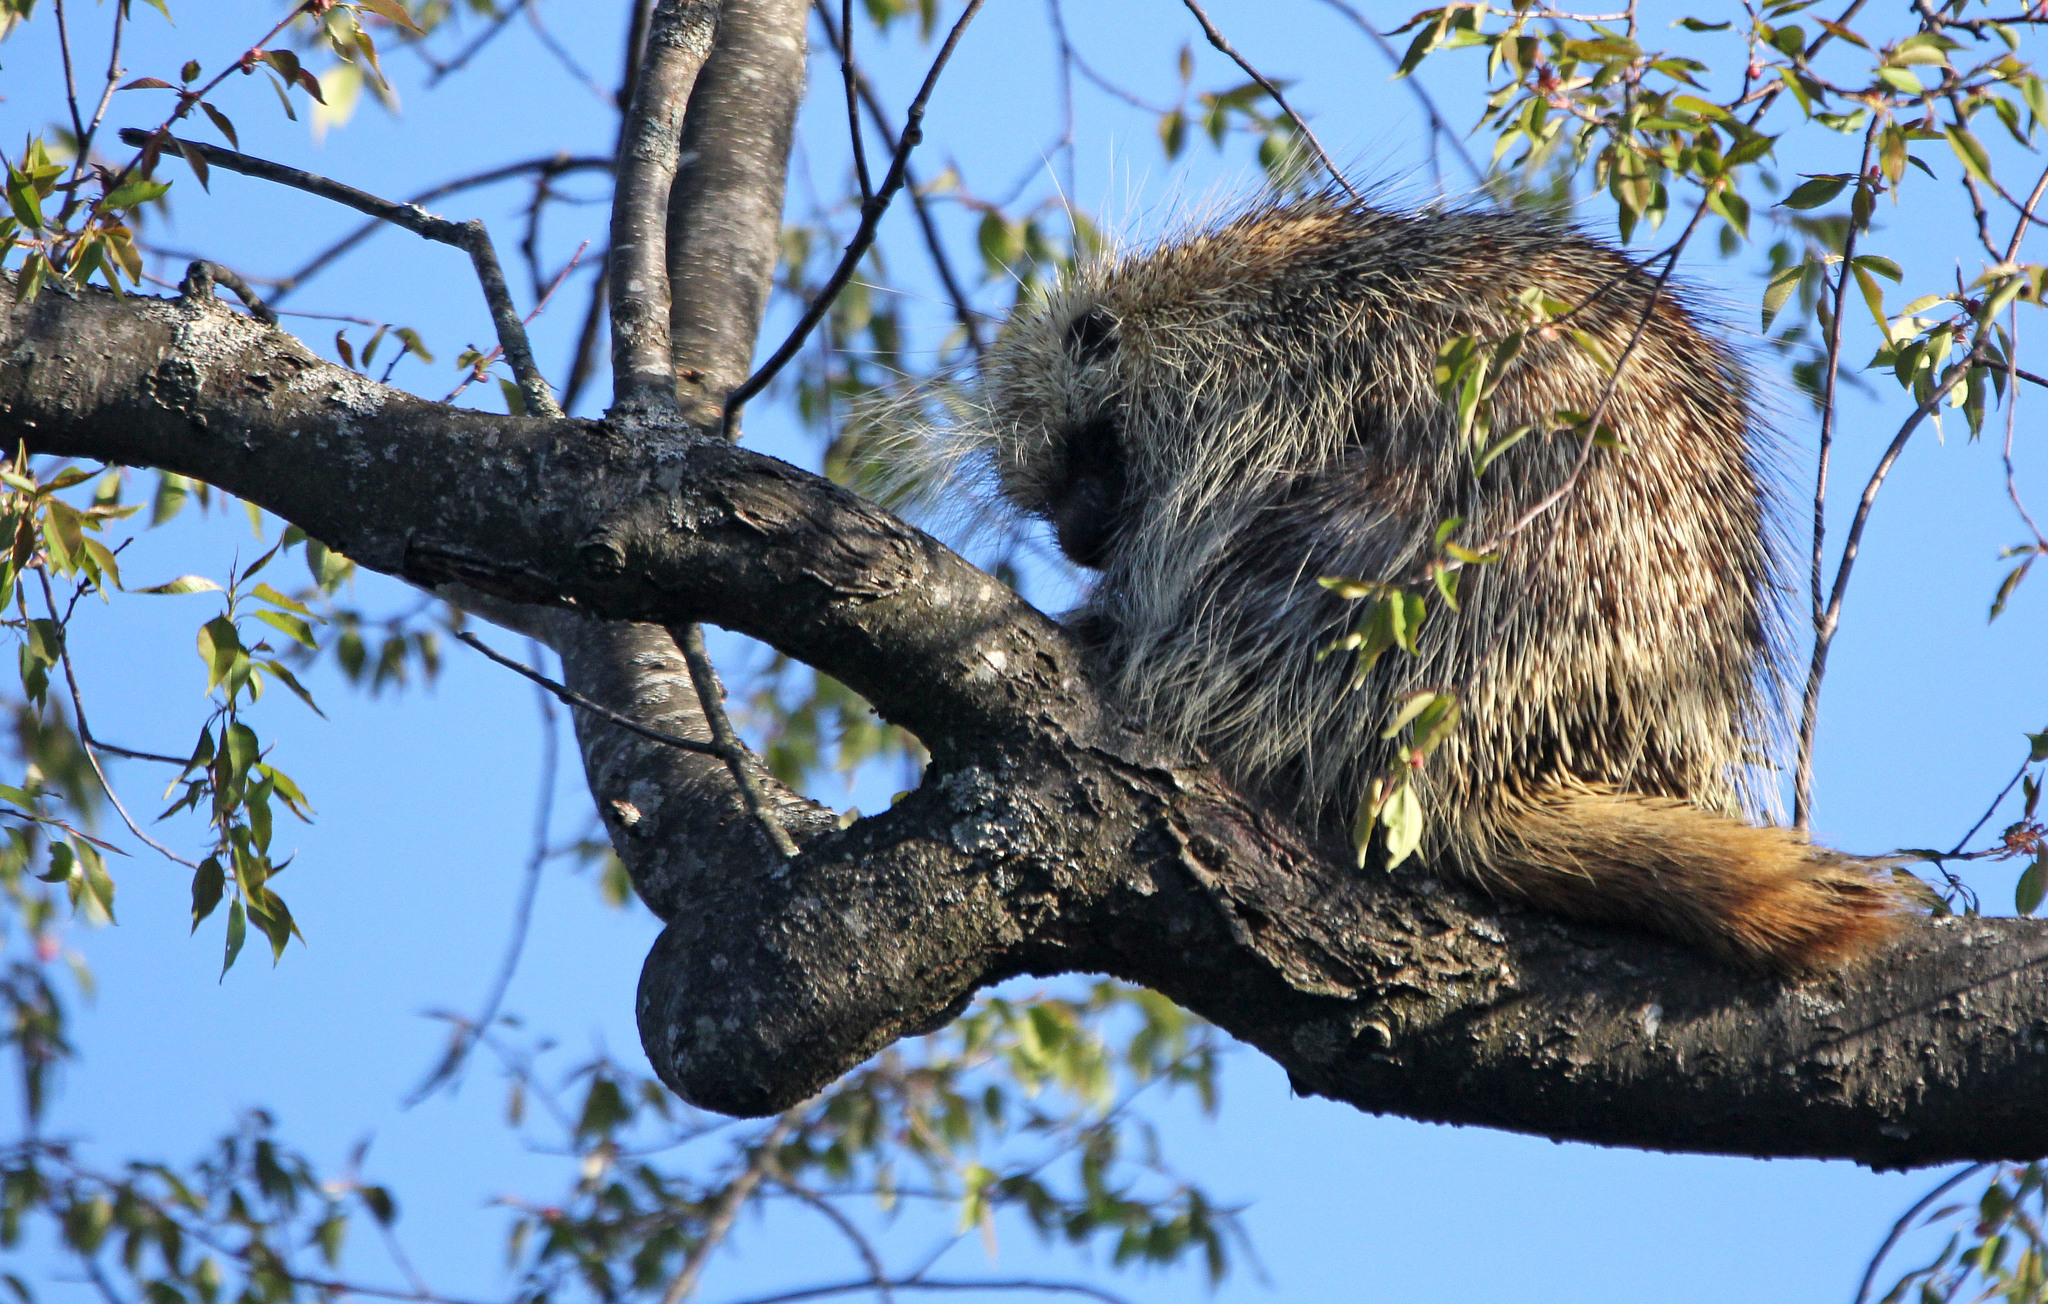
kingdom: Animalia
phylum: Chordata
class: Mammalia
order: Rodentia
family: Erethizontidae
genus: Erethizon
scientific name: Erethizon dorsatus
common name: North american porcupine
